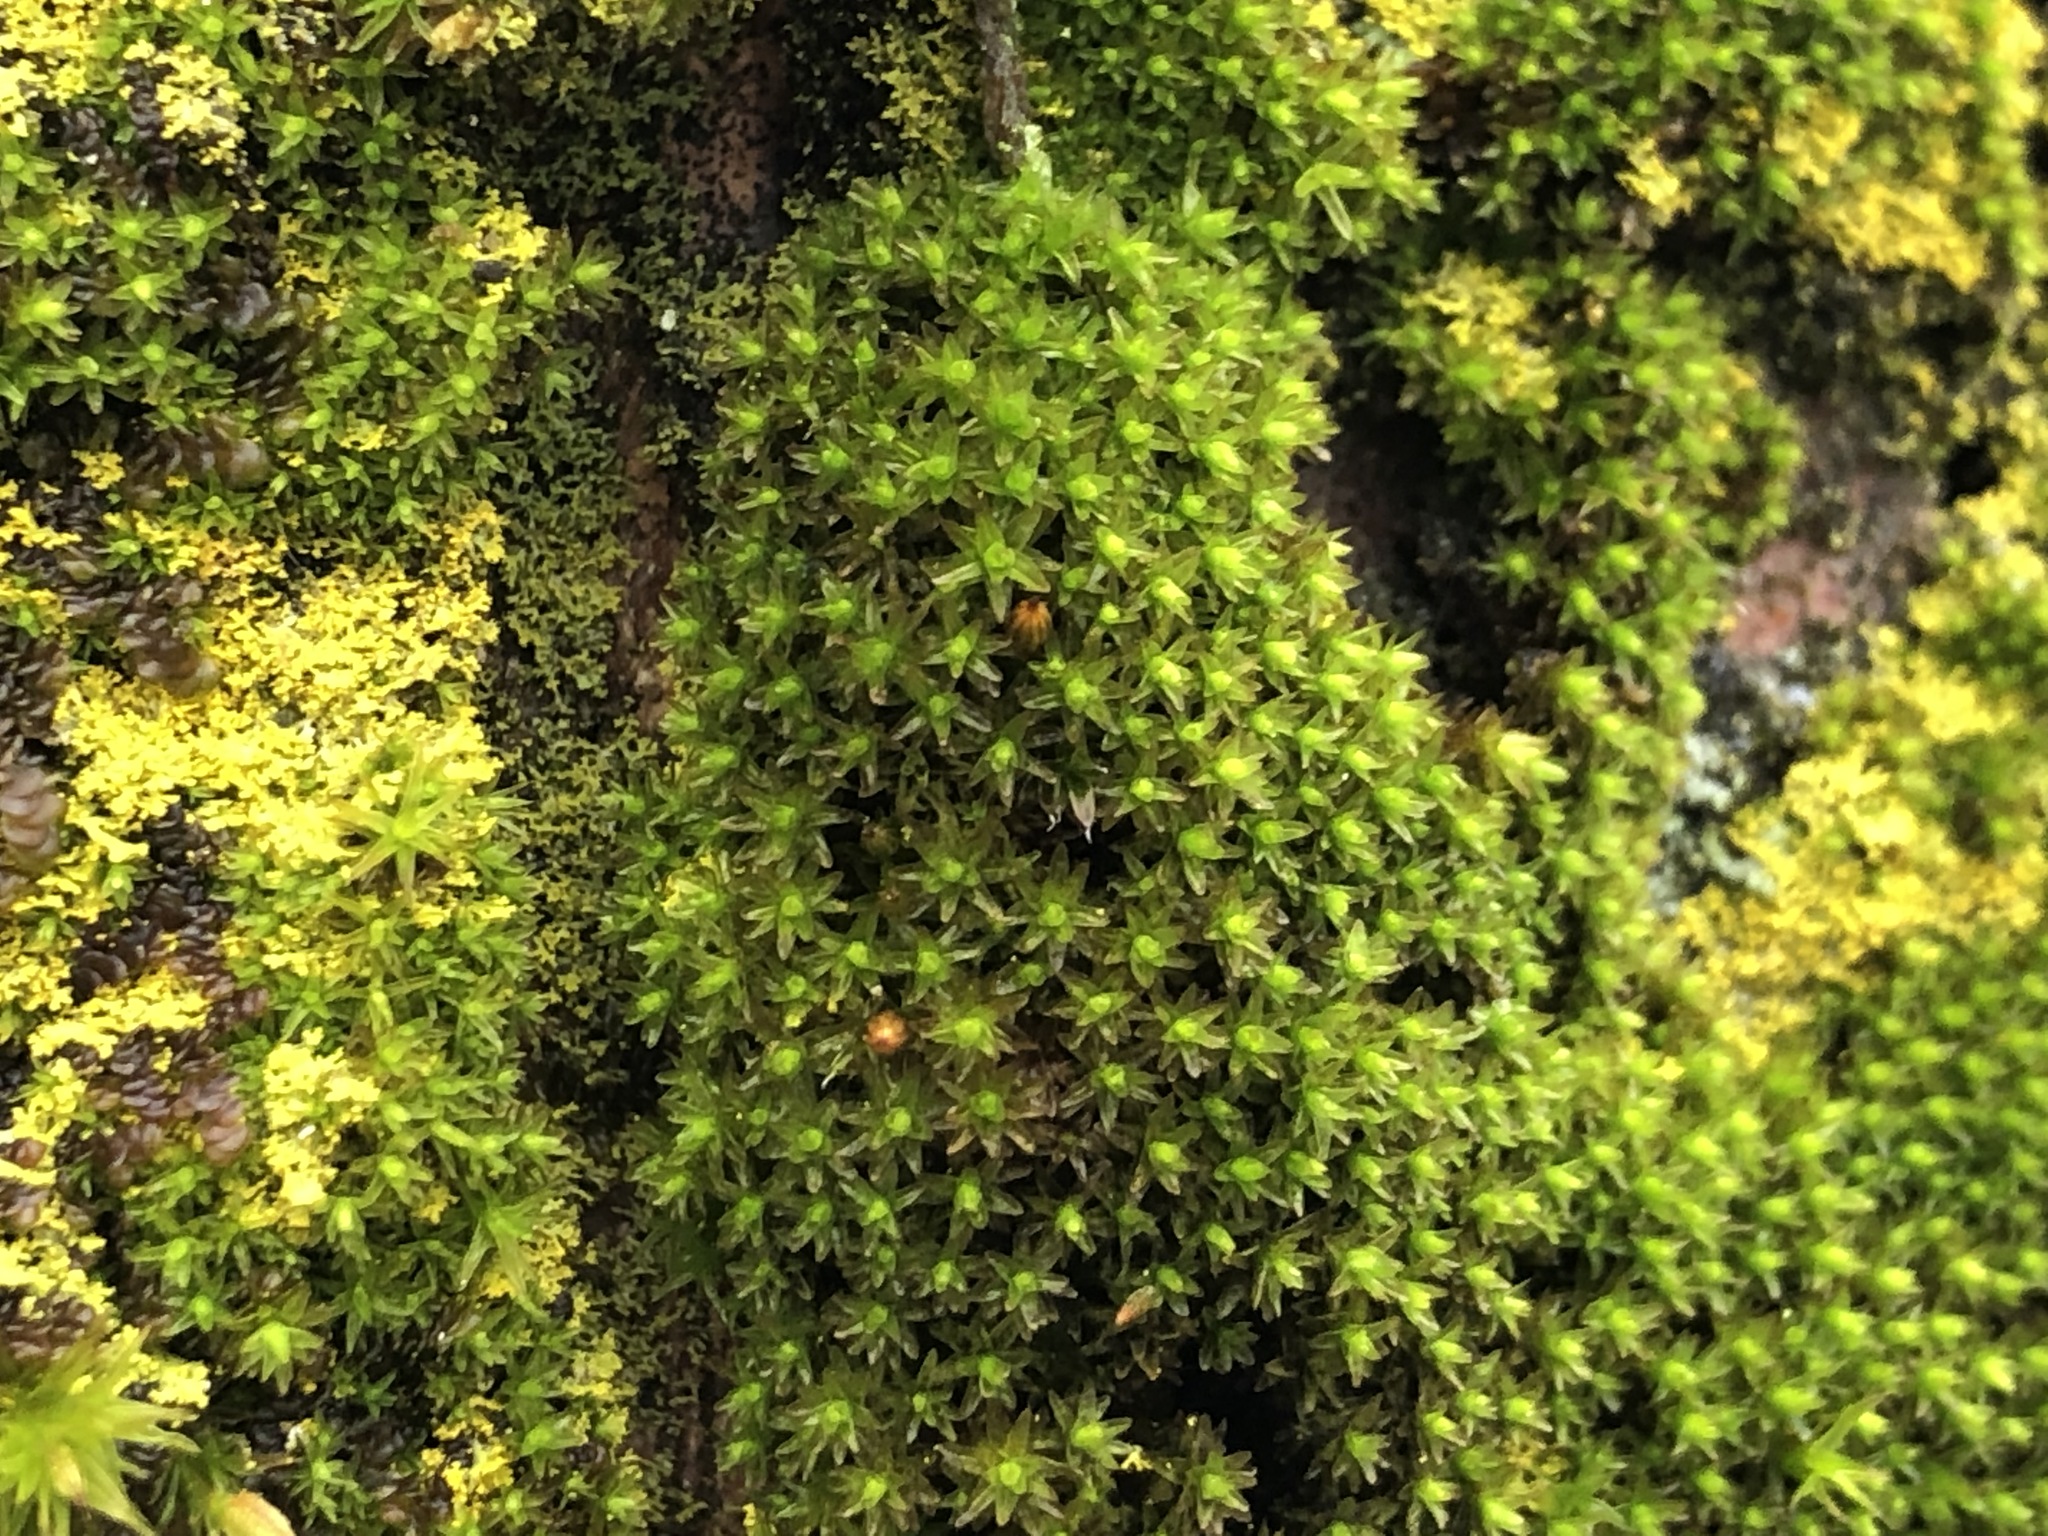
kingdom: Plantae
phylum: Bryophyta
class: Bryopsida
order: Orthotrichales
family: Orthotrichaceae
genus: Nyholmiella
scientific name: Nyholmiella obtusifolia
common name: Blunt-leaved bristle-moss
